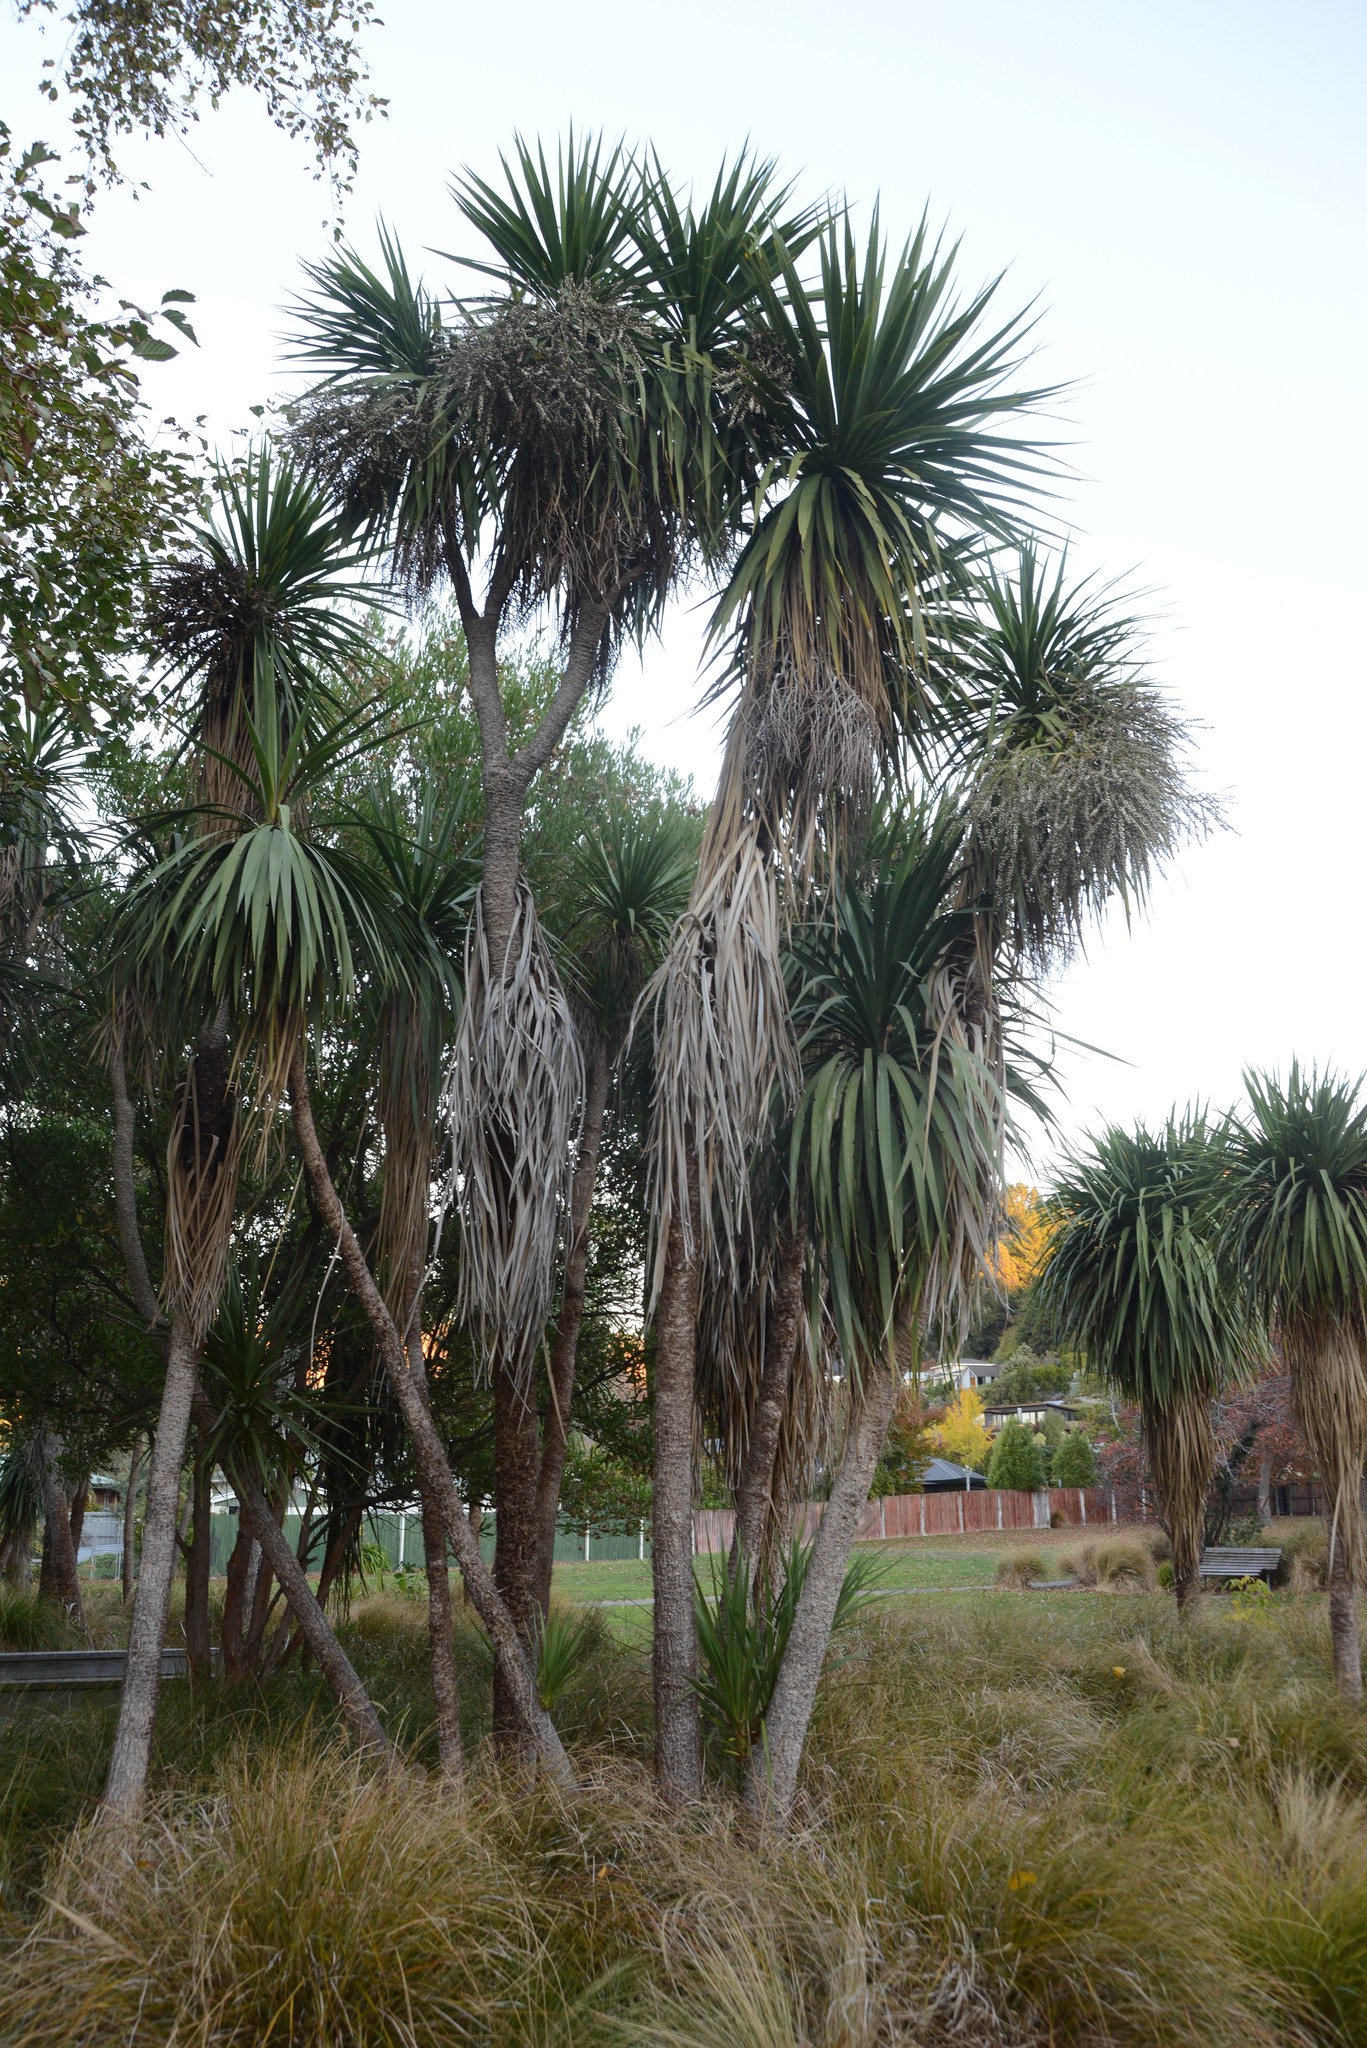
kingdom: Plantae
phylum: Tracheophyta
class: Liliopsida
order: Asparagales
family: Asparagaceae
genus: Cordyline
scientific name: Cordyline australis
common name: Cabbage-palm
